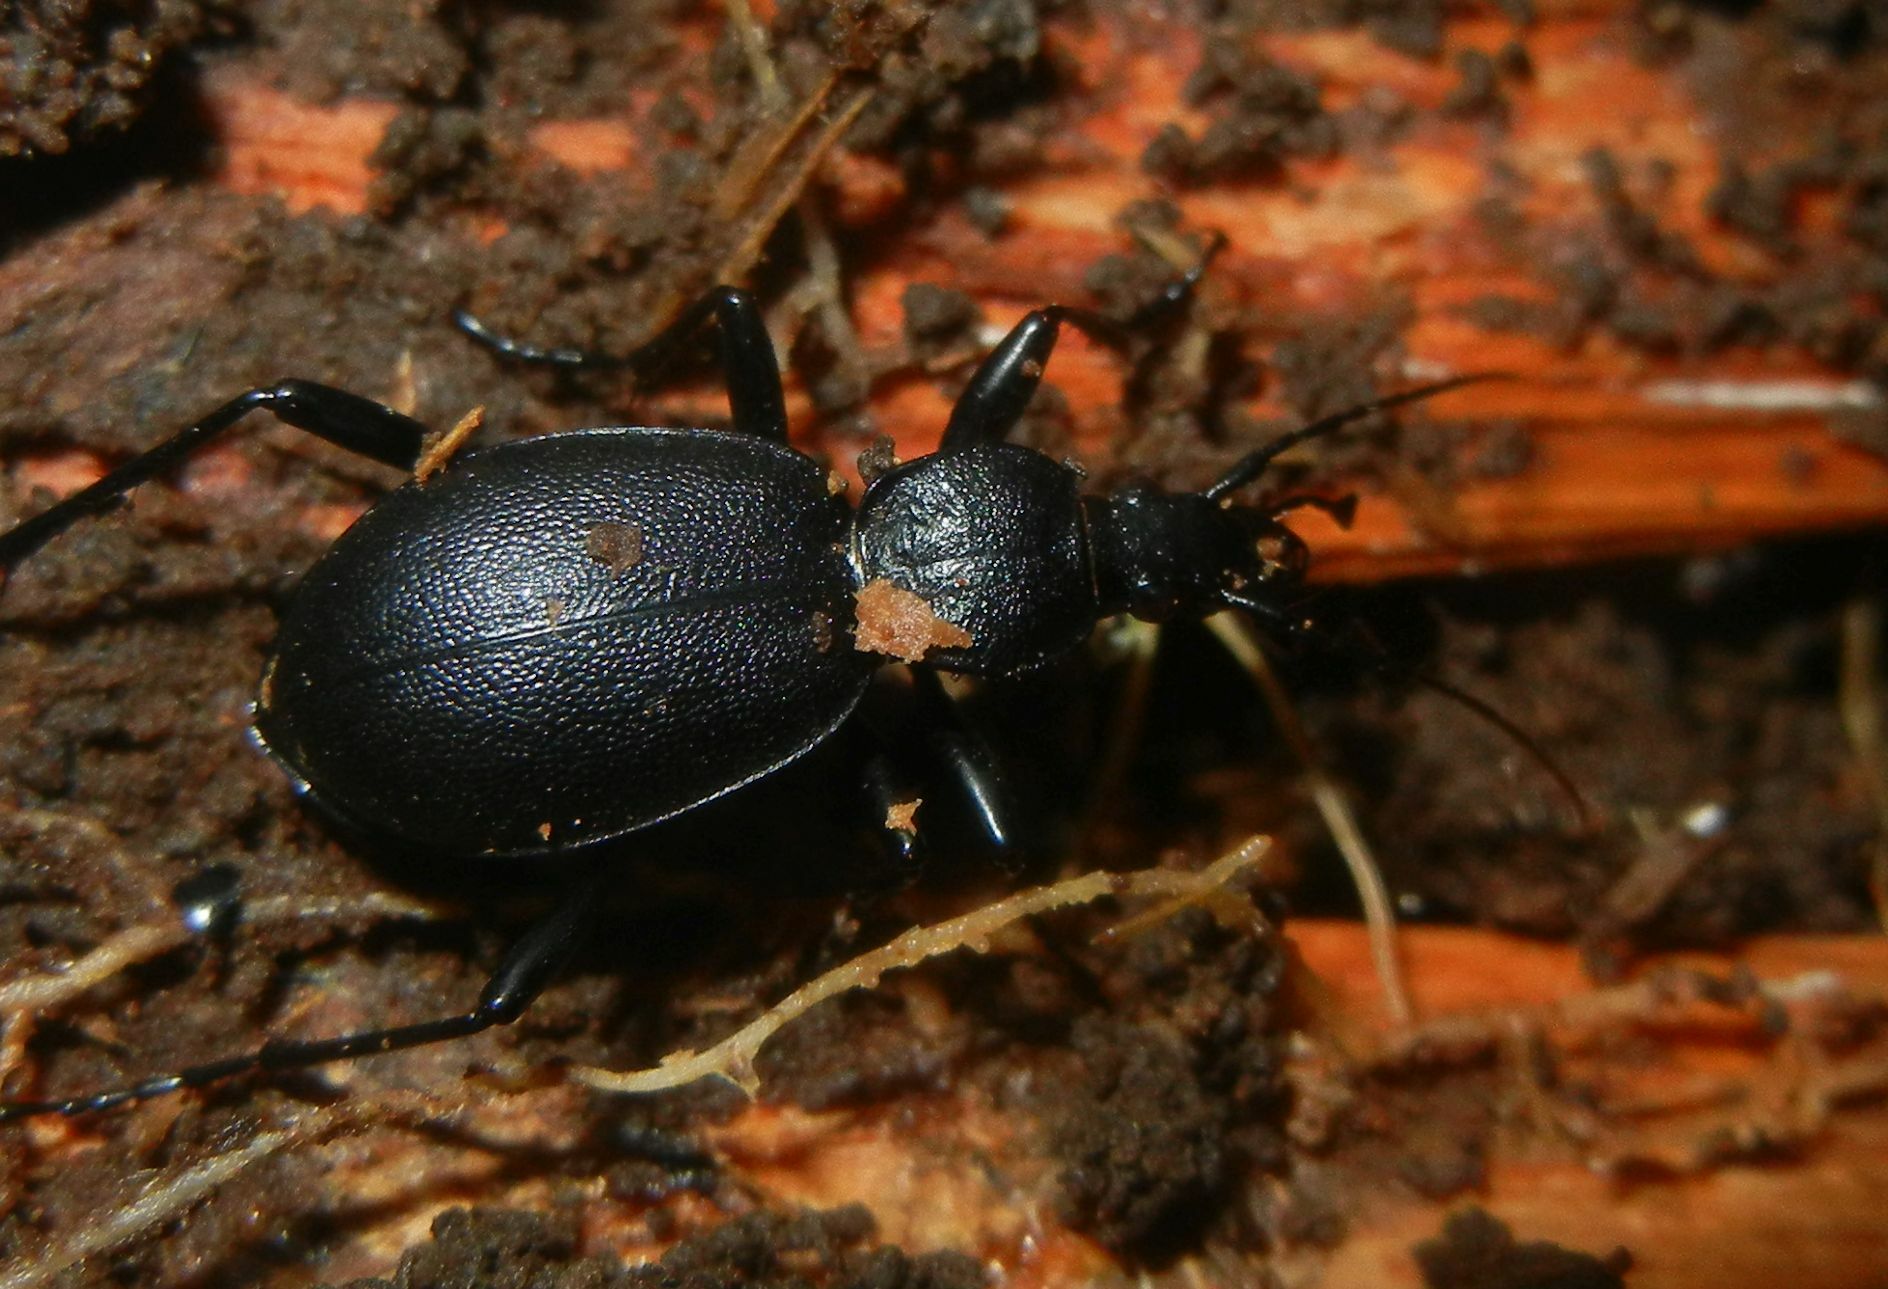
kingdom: Animalia
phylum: Arthropoda
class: Insecta
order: Coleoptera
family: Carabidae
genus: Cychrus
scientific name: Cychrus caraboides
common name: Snail hunter
